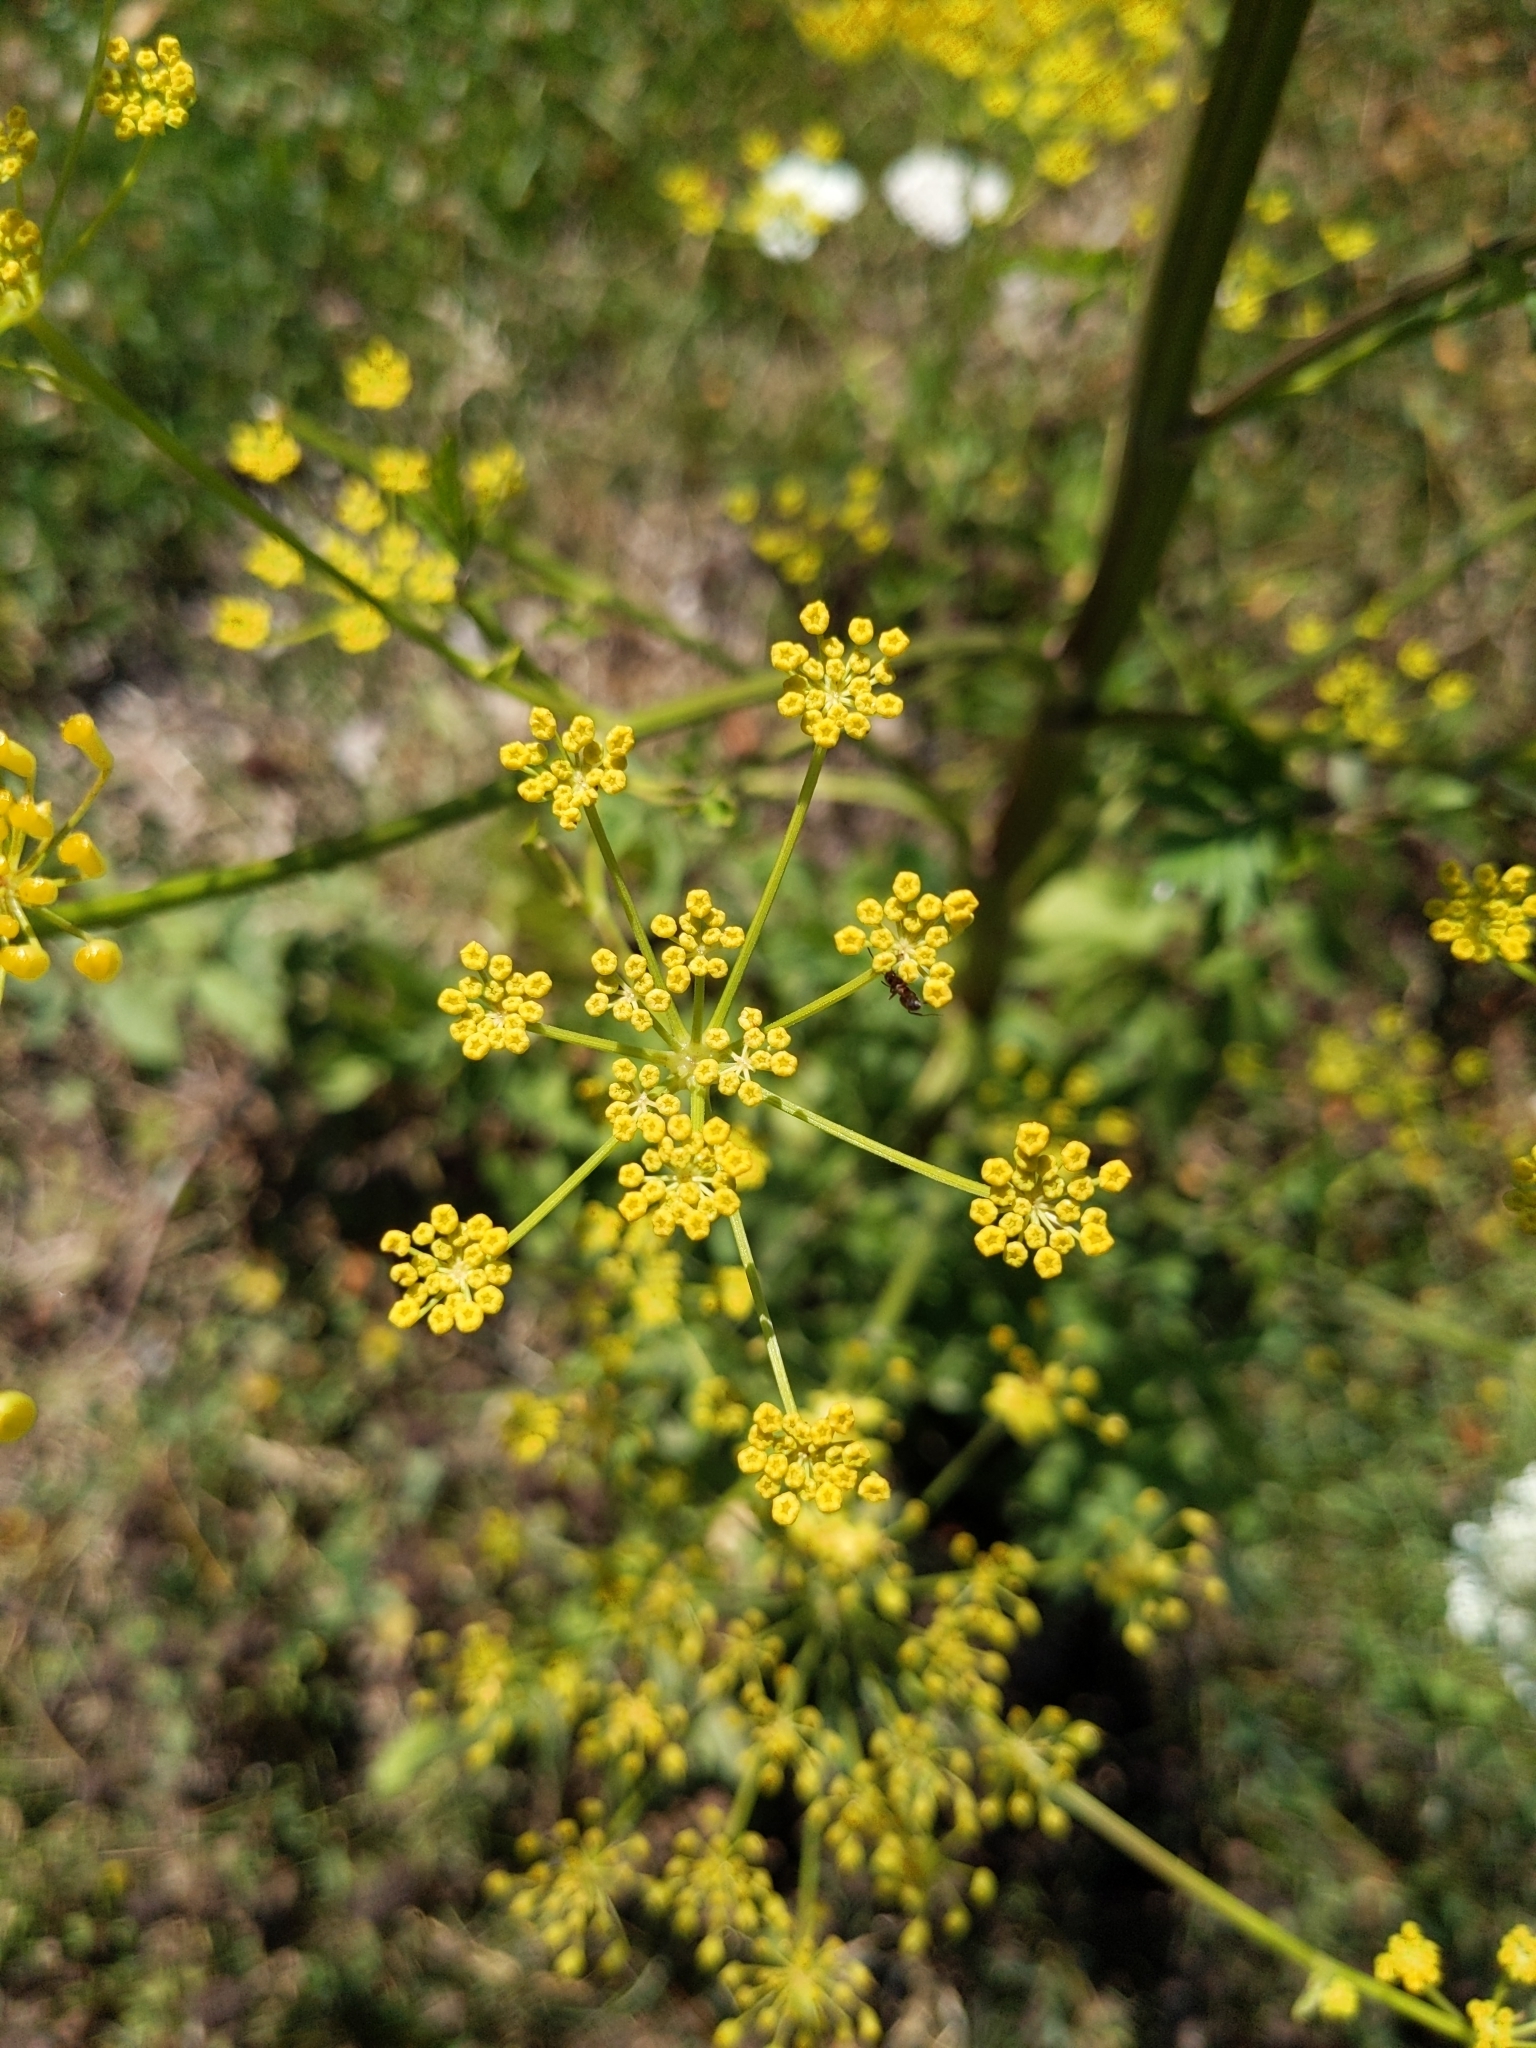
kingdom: Plantae
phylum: Tracheophyta
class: Magnoliopsida
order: Apiales
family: Apiaceae
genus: Pastinaca
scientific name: Pastinaca sativa
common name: Wild parsnip
